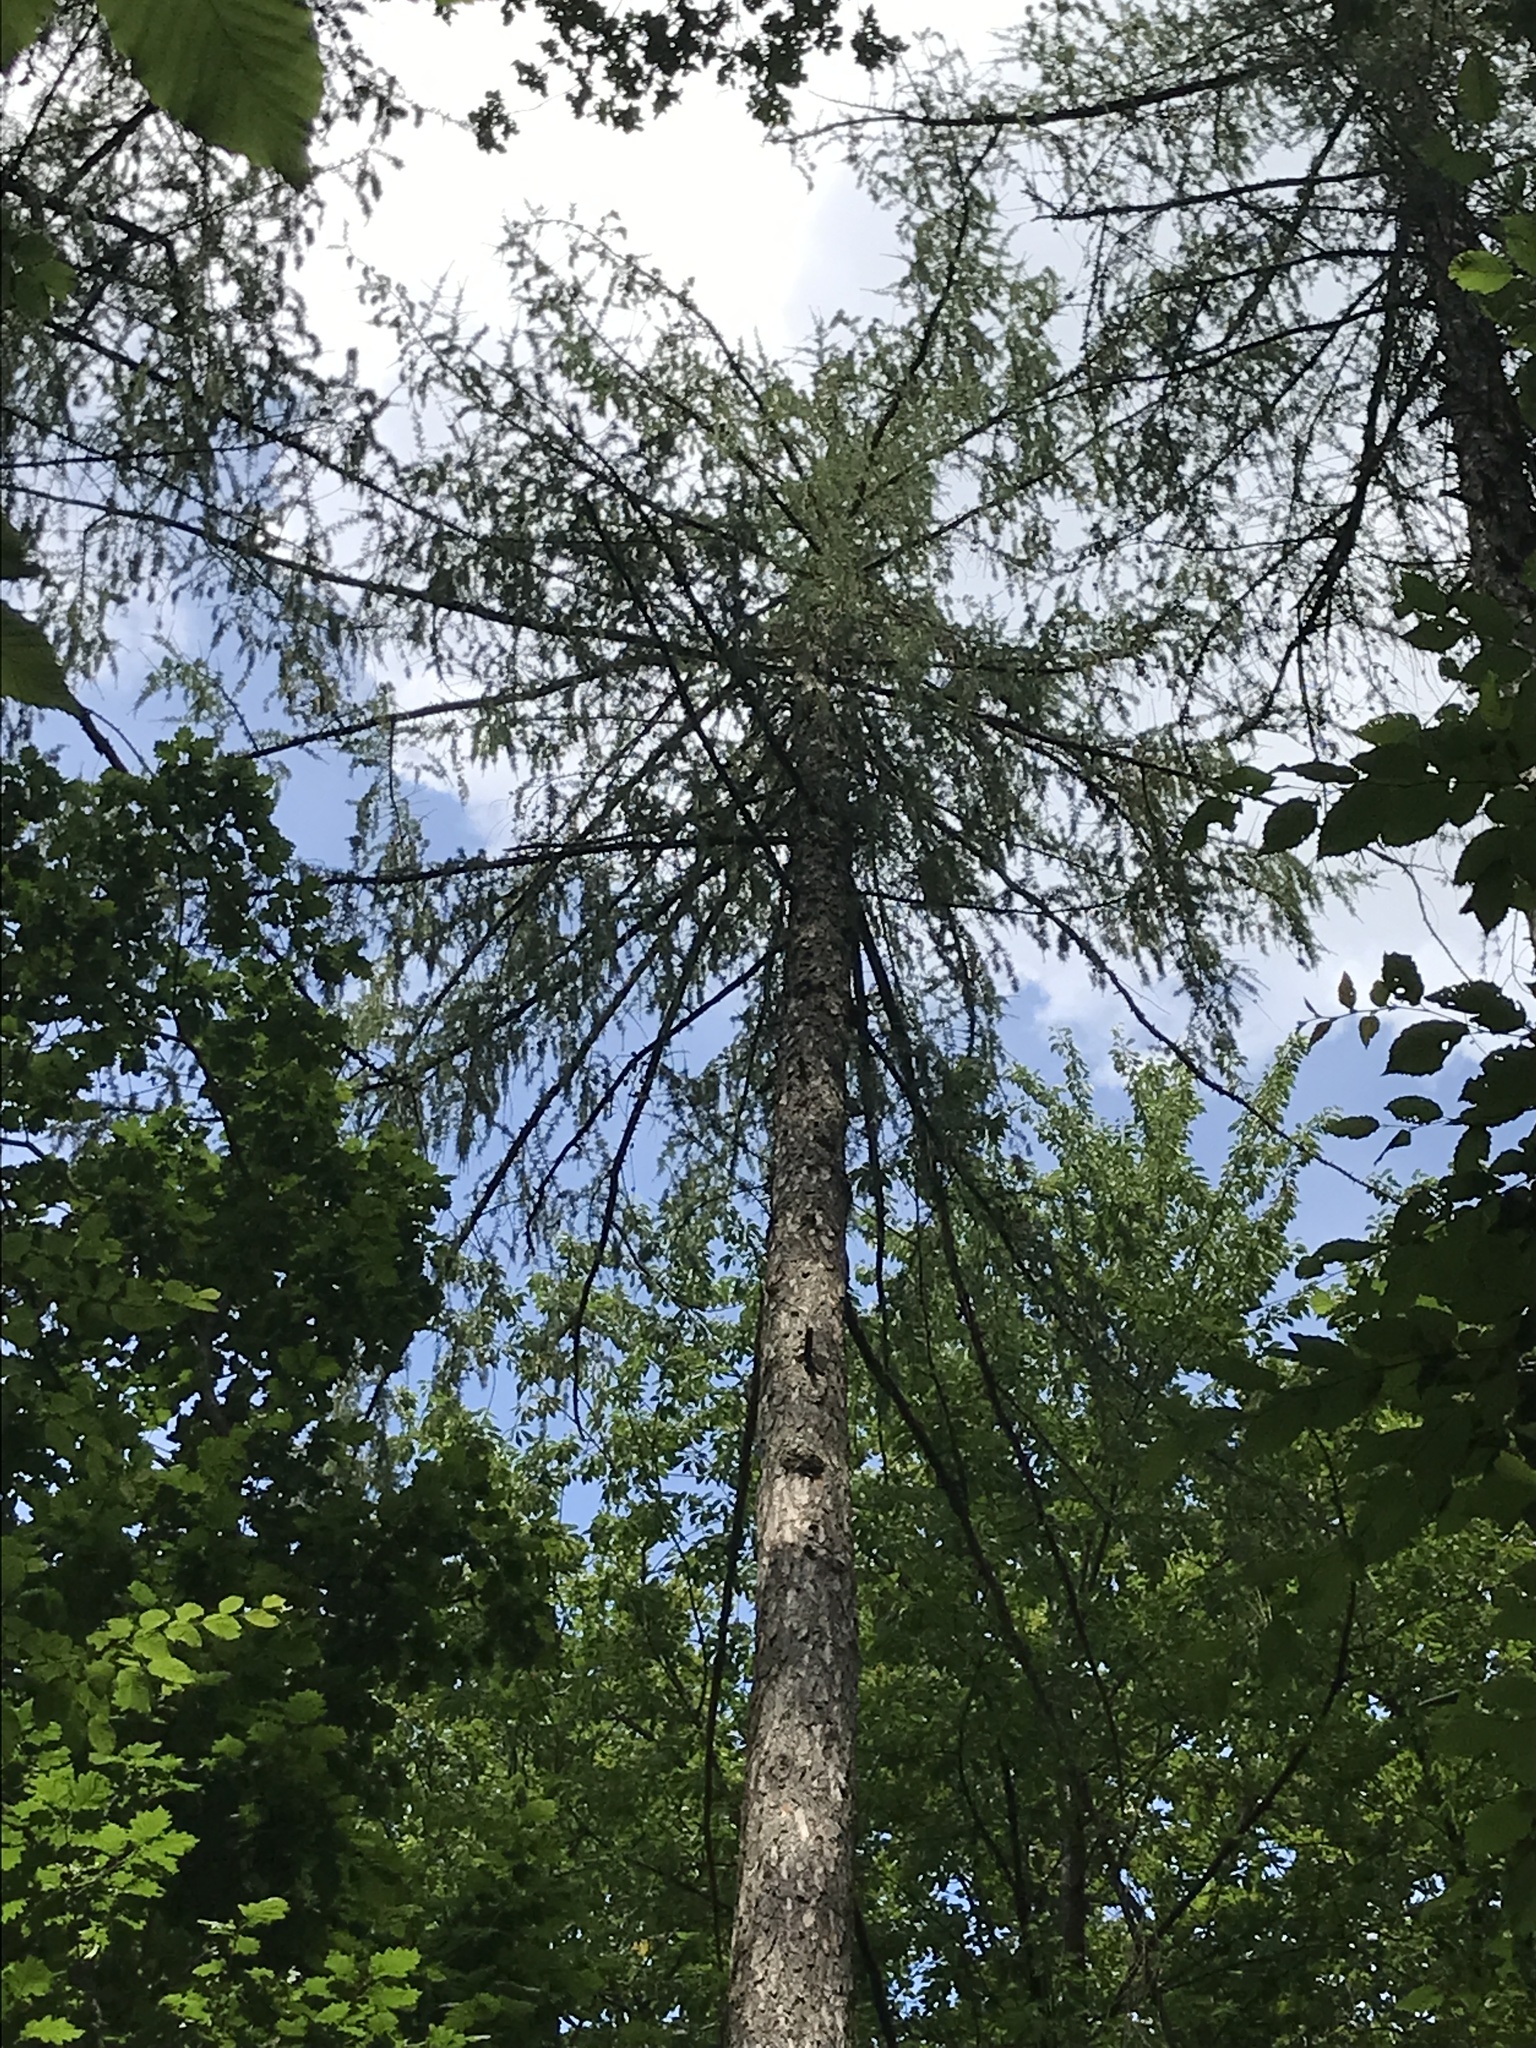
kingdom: Plantae
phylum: Tracheophyta
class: Pinopsida
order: Pinales
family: Pinaceae
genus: Larix
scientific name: Larix decidua
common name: European larch
